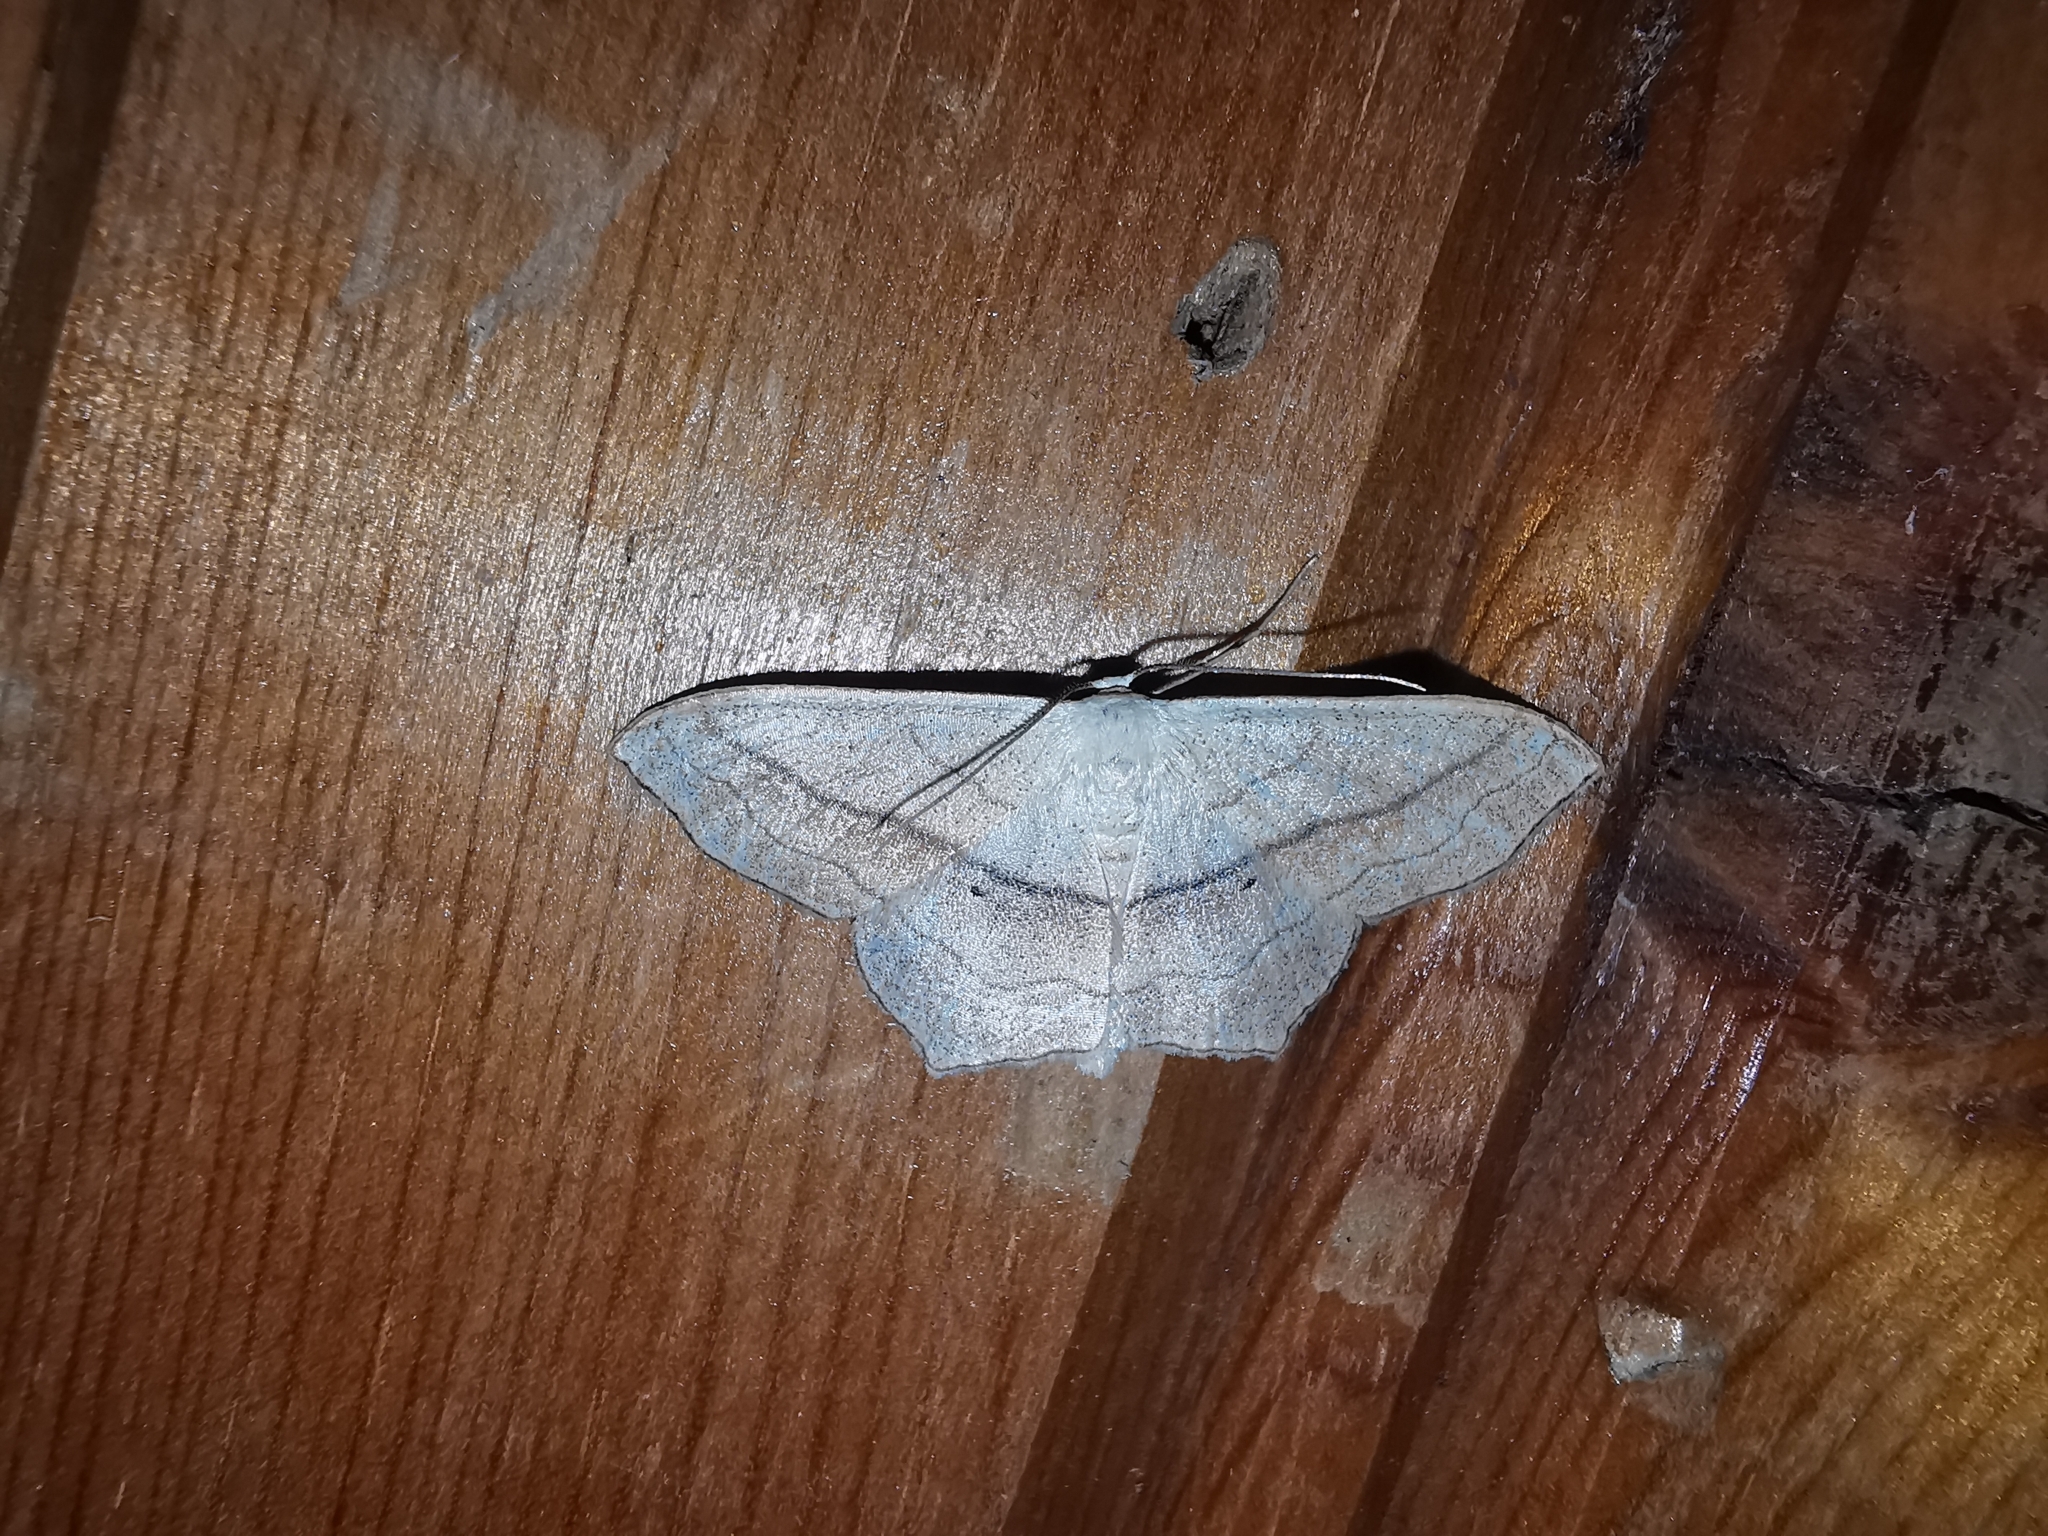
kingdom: Animalia
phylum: Arthropoda
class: Insecta
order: Lepidoptera
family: Geometridae
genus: Scopula
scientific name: Scopula imitaria
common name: Small blood-vein
